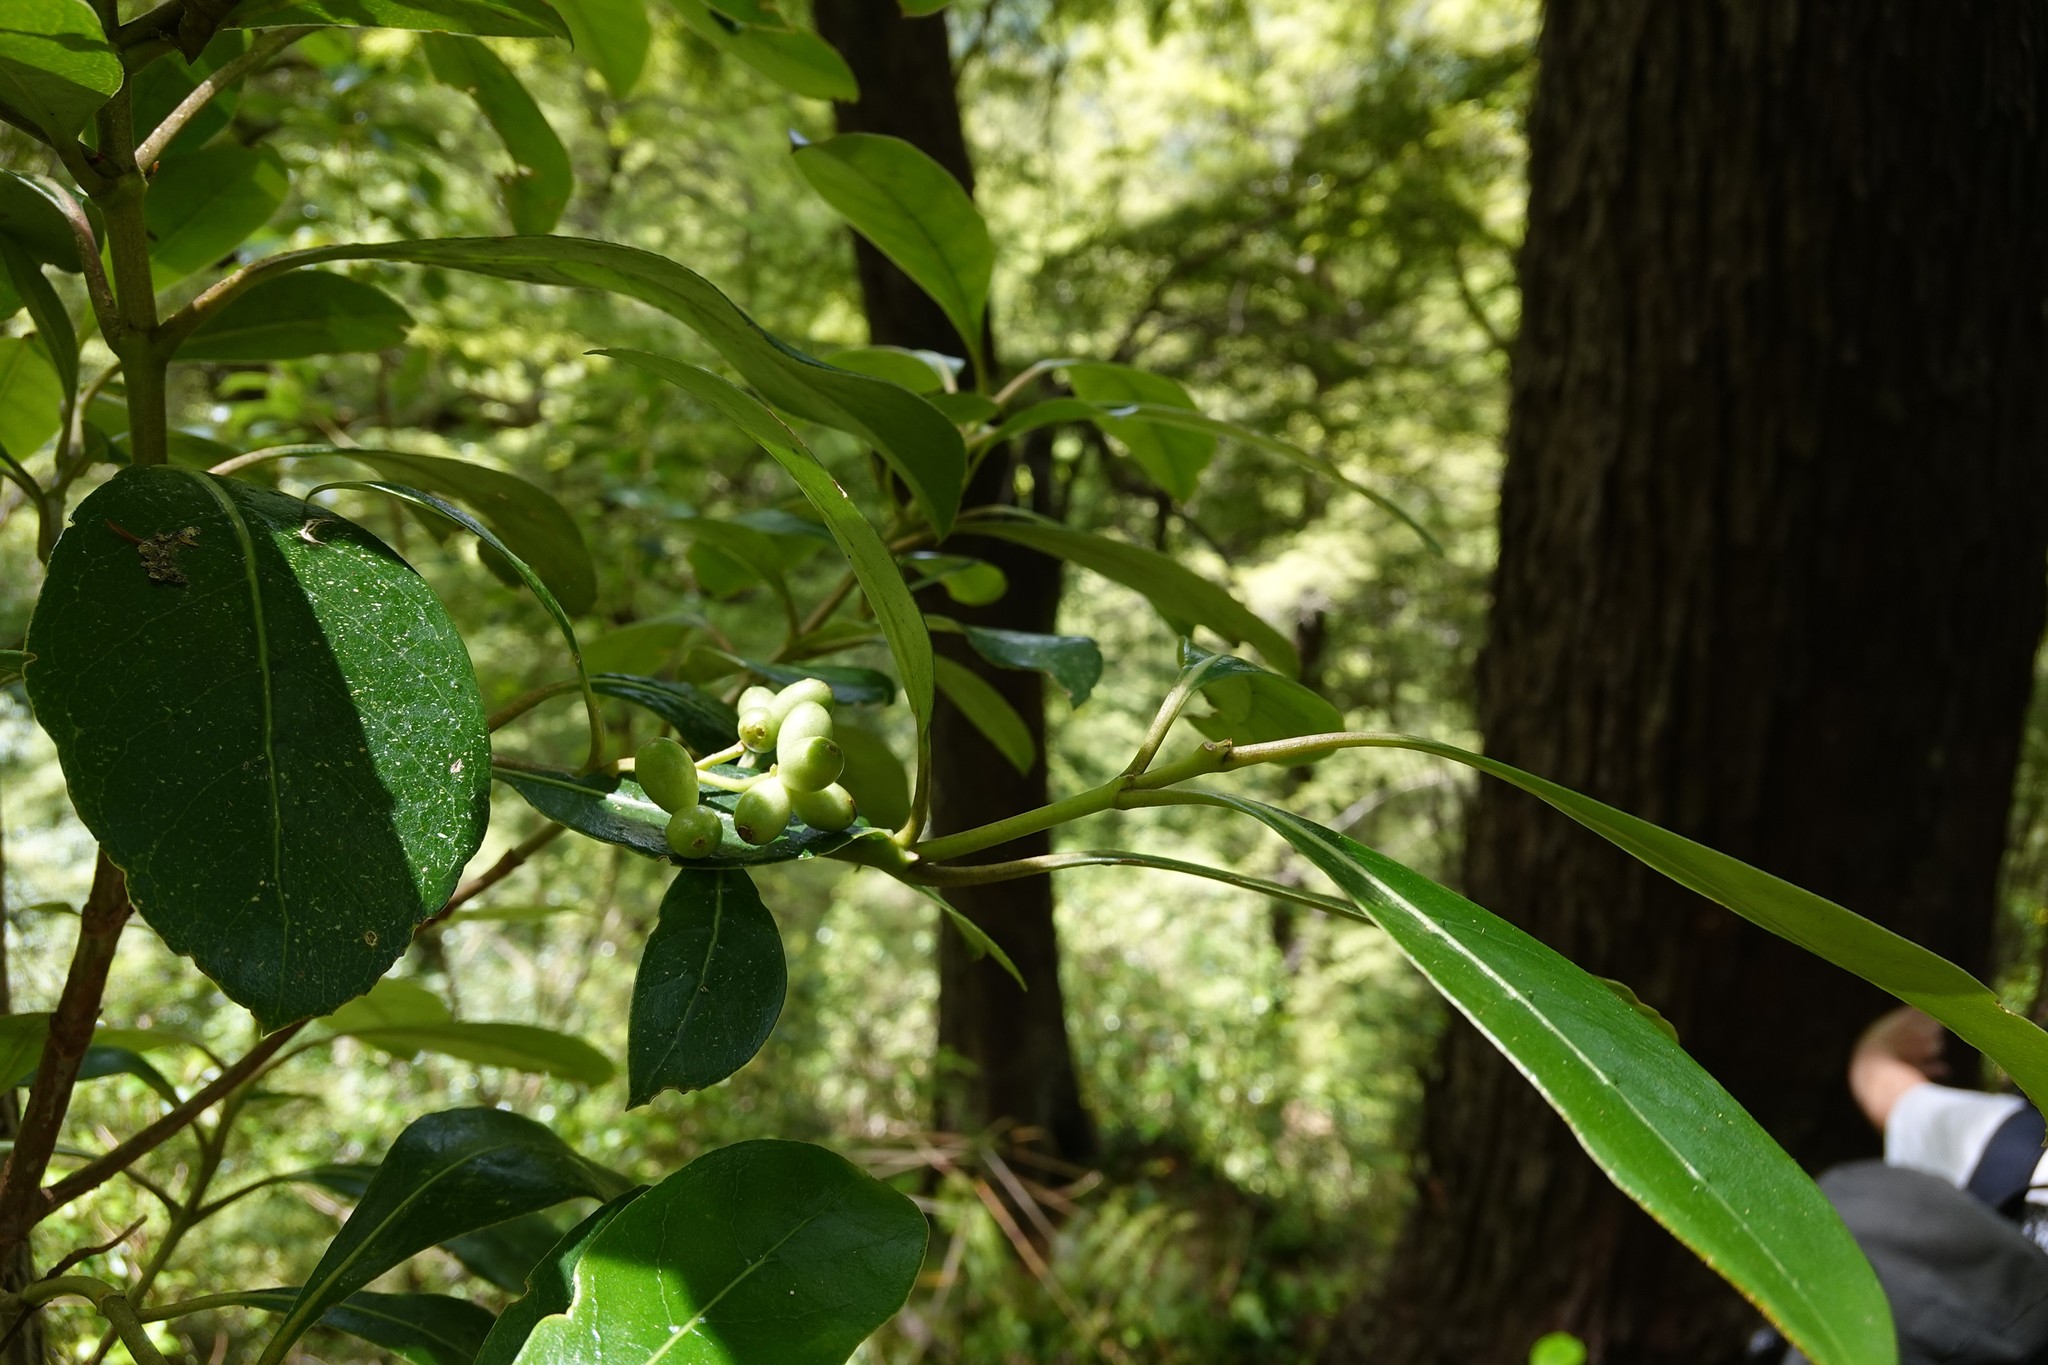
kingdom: Plantae
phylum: Tracheophyta
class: Magnoliopsida
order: Gentianales
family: Rubiaceae
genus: Coprosma
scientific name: Coprosma lucida
